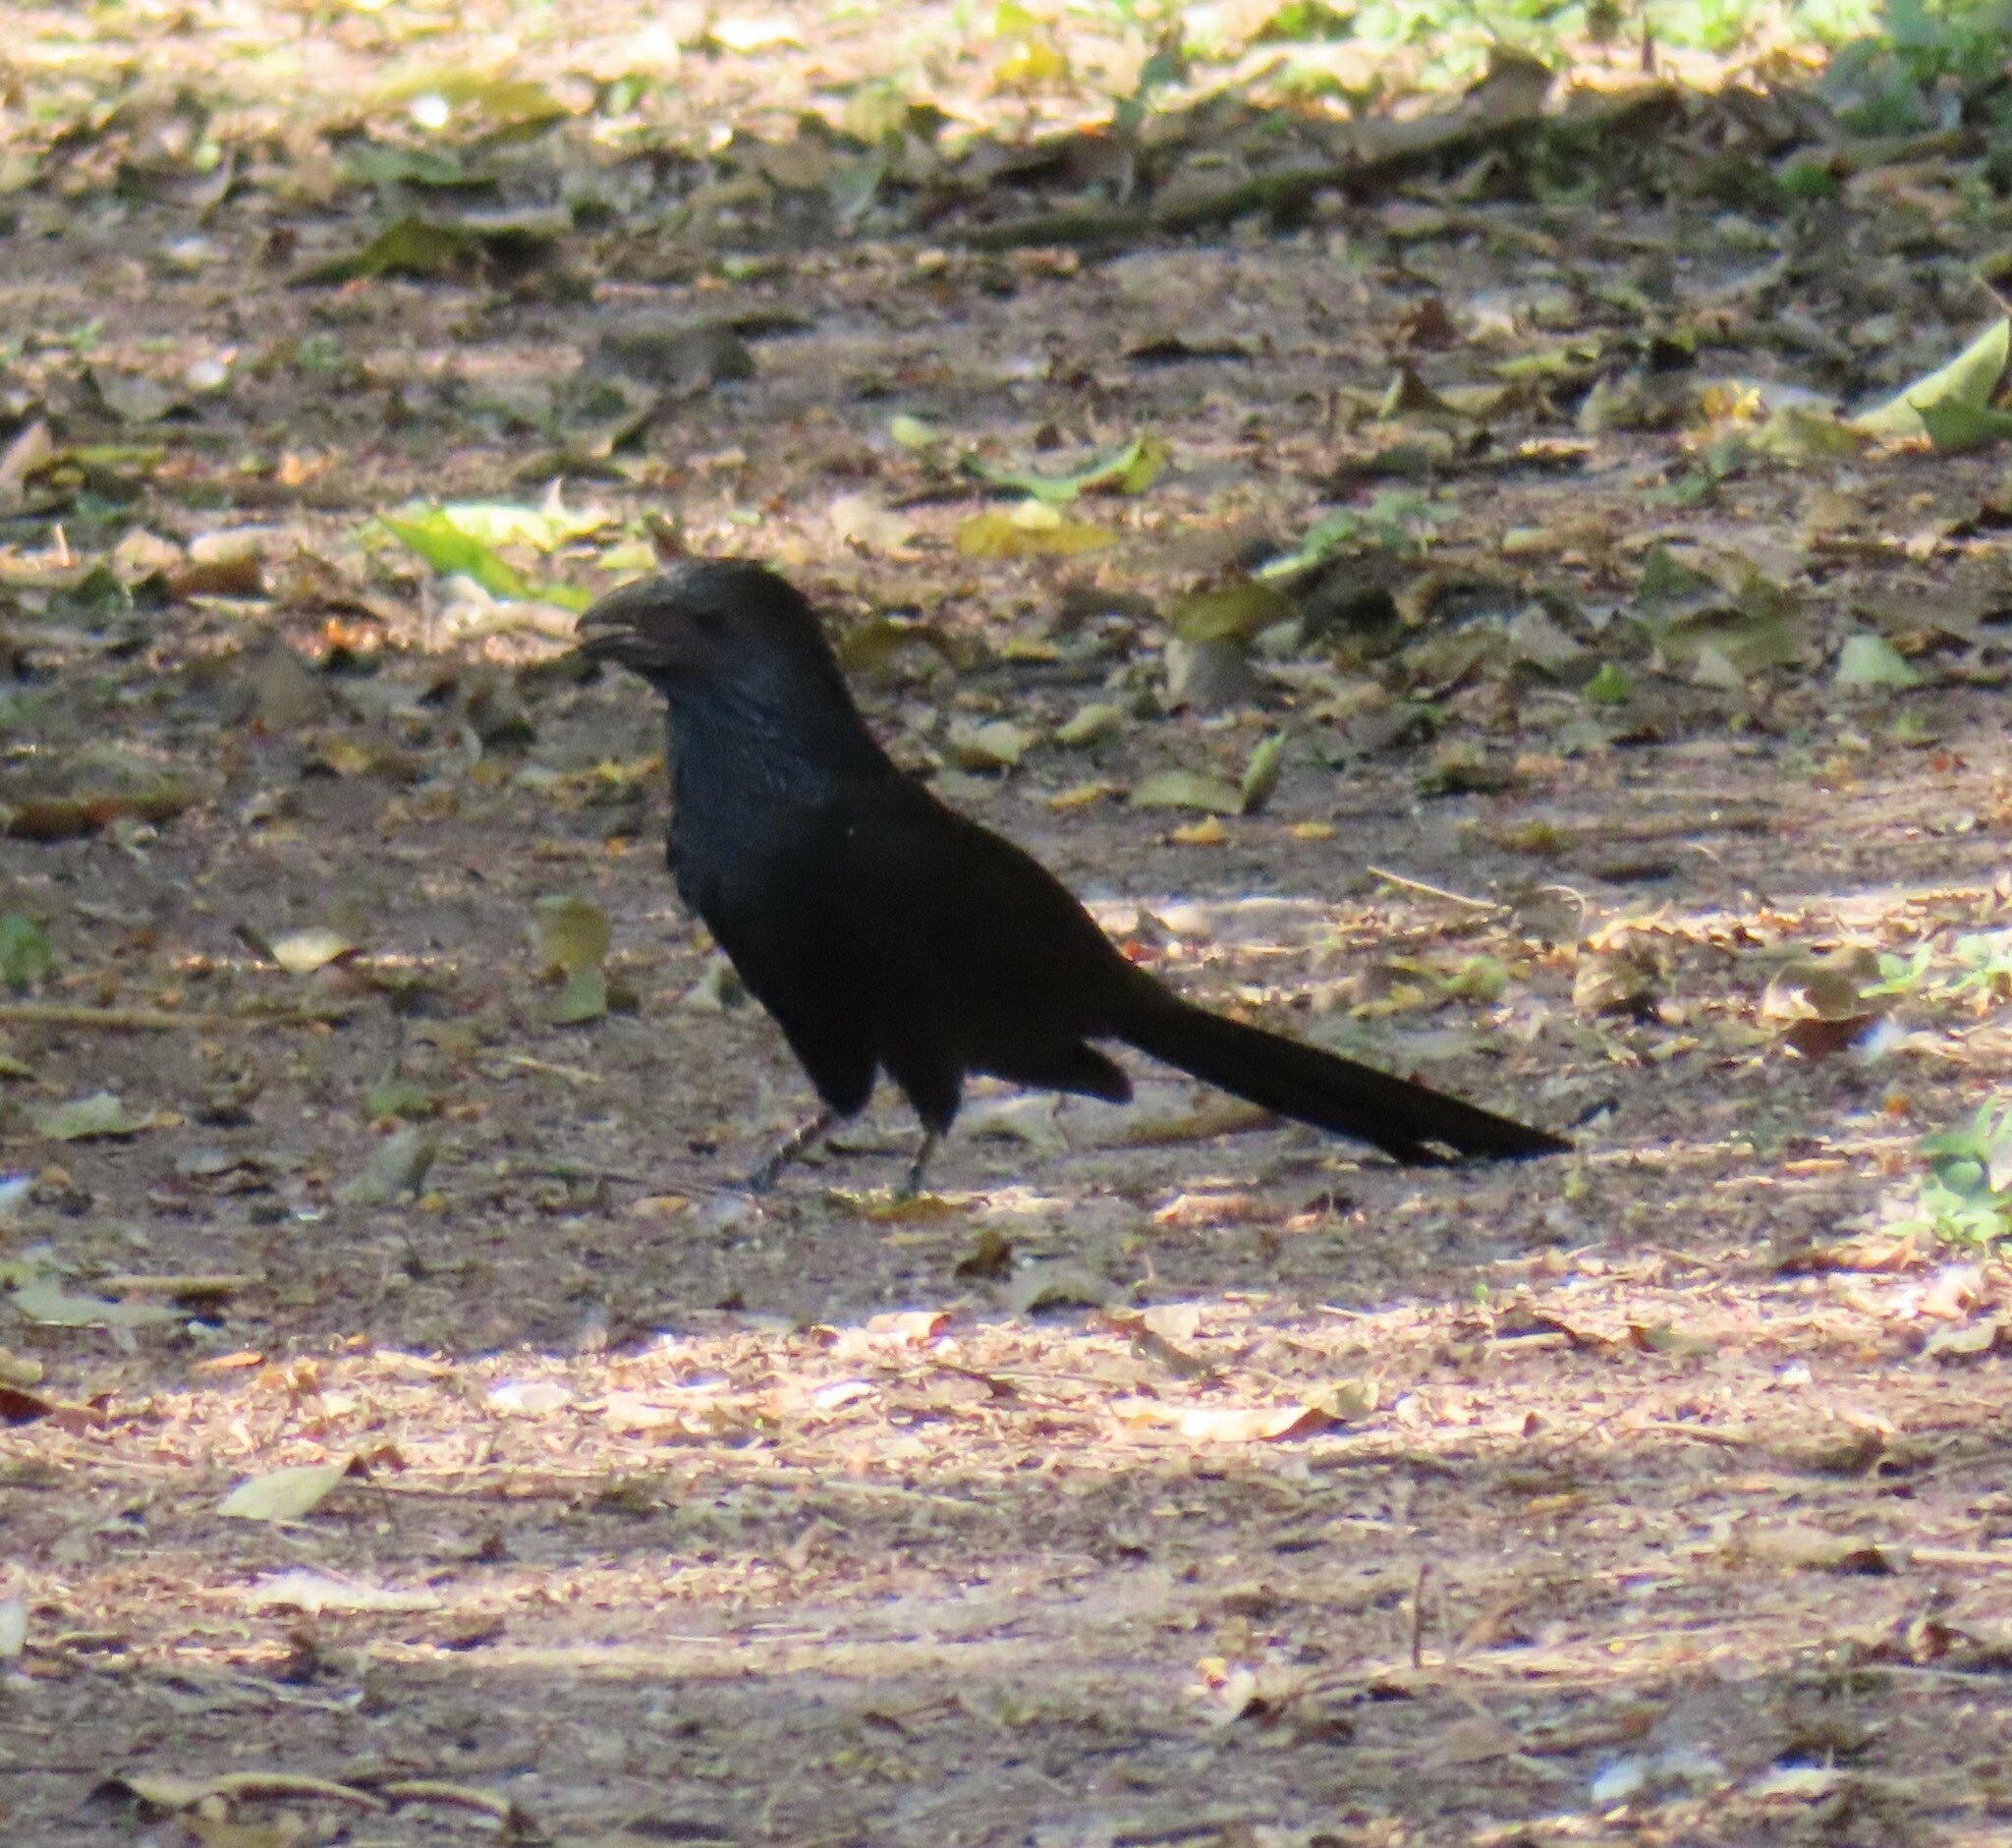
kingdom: Animalia
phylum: Chordata
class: Aves
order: Cuculiformes
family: Cuculidae
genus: Crotophaga
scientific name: Crotophaga sulcirostris
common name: Groove-billed ani
